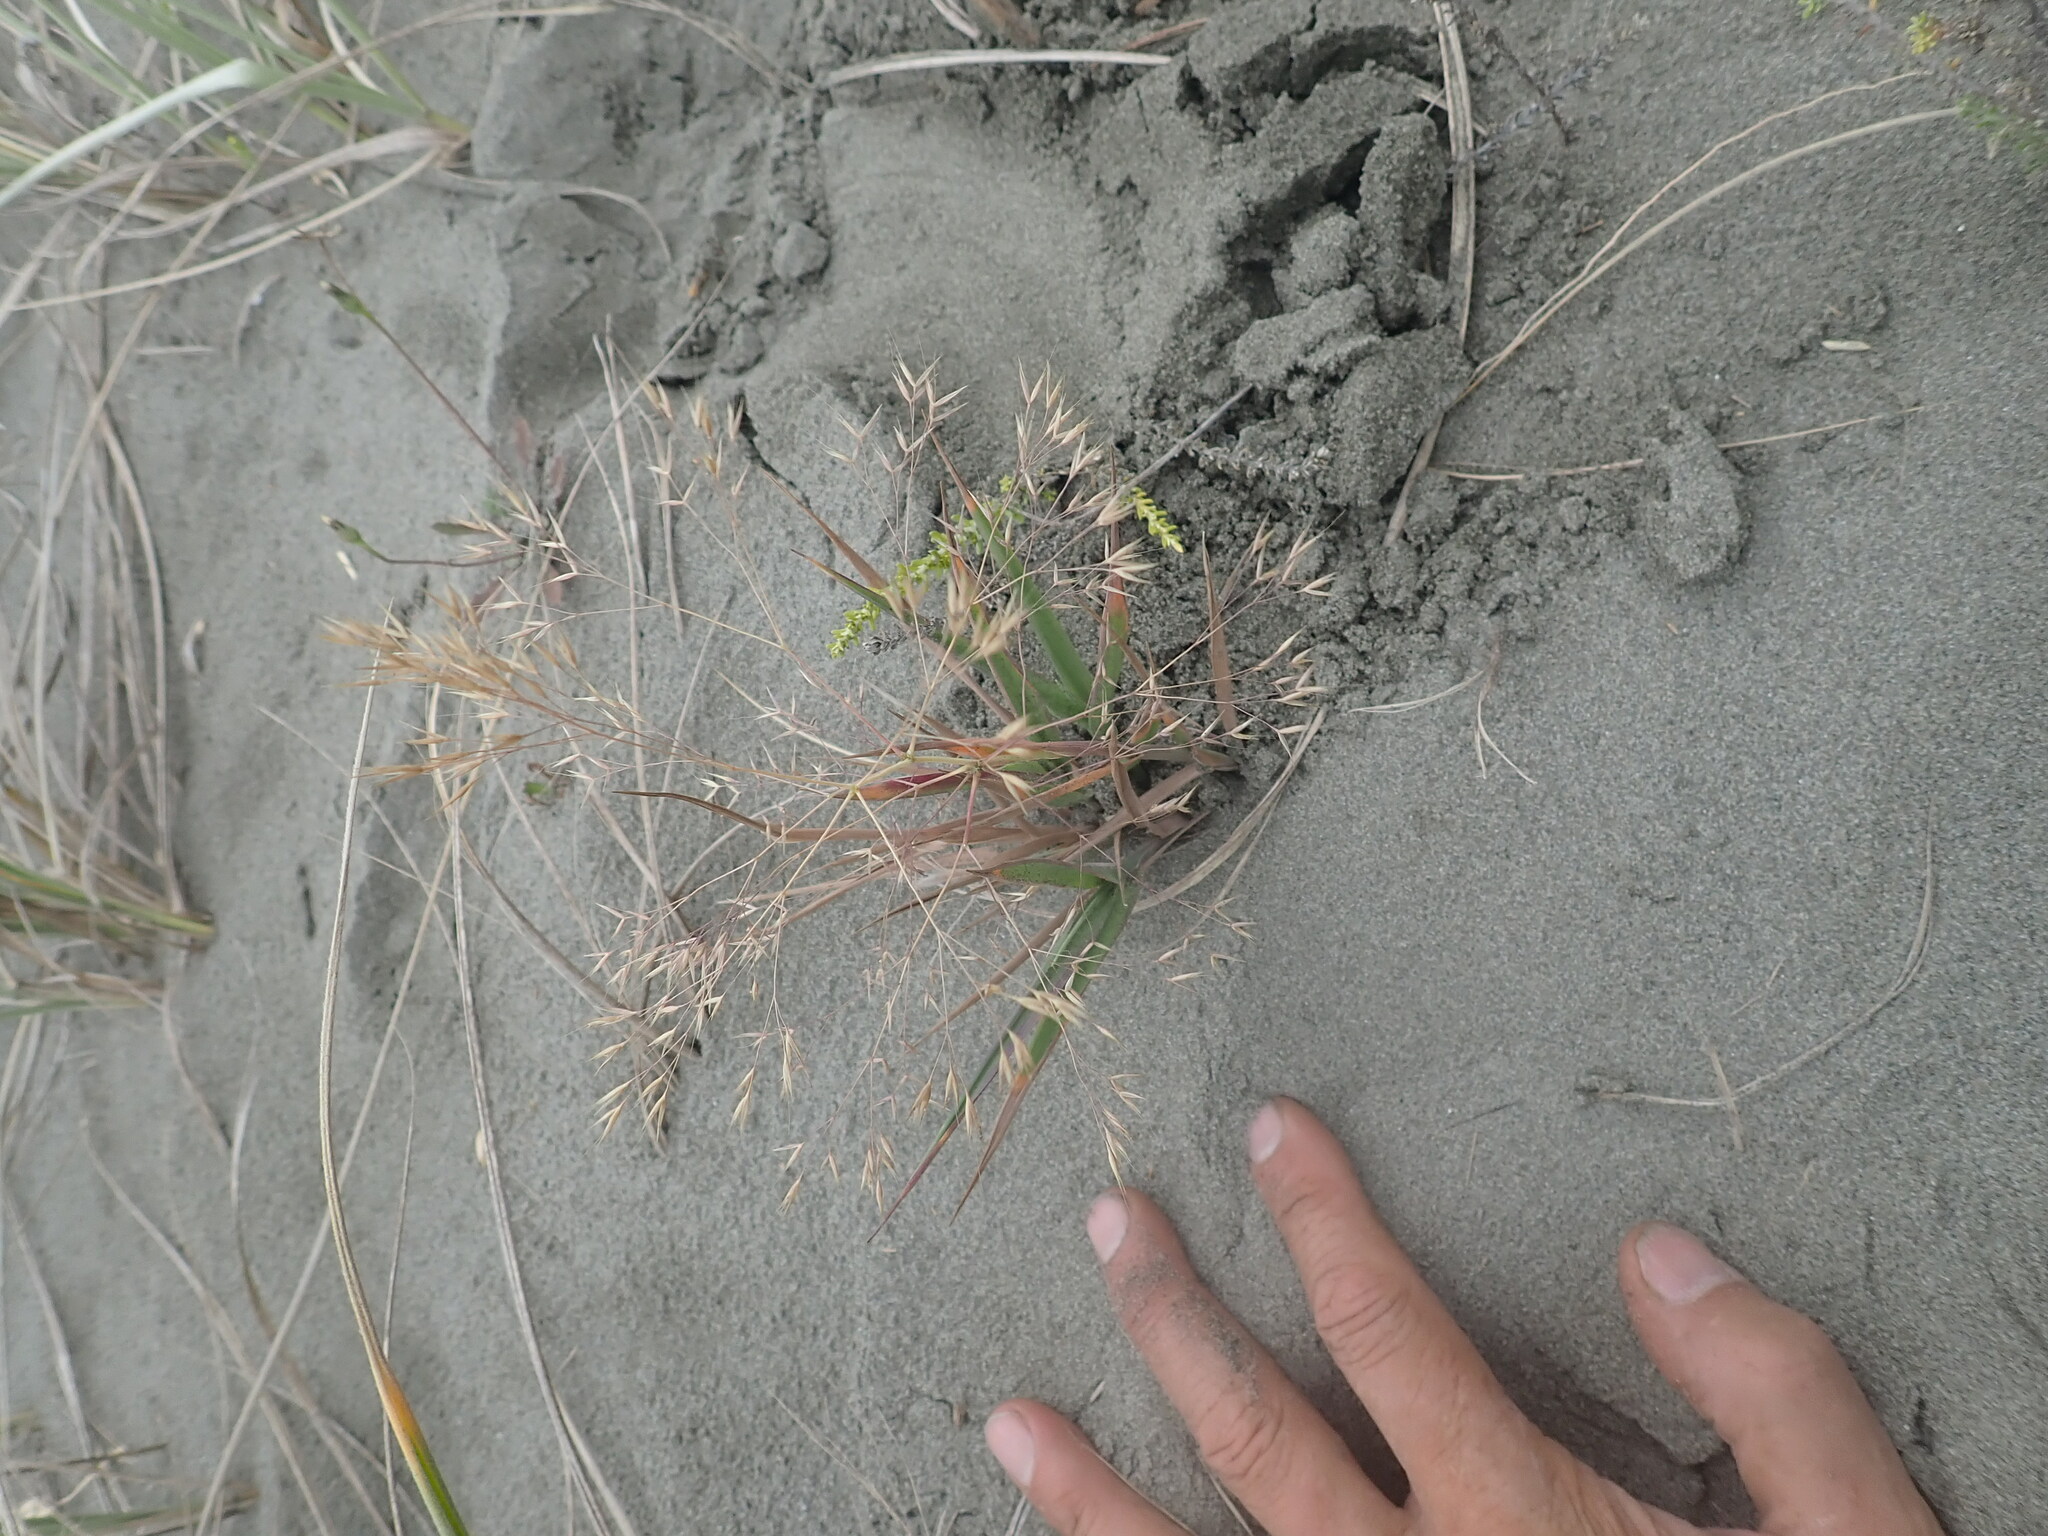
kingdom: Plantae
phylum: Tracheophyta
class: Liliopsida
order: Poales
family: Poaceae
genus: Lachnagrostis
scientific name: Lachnagrostis billardierei
